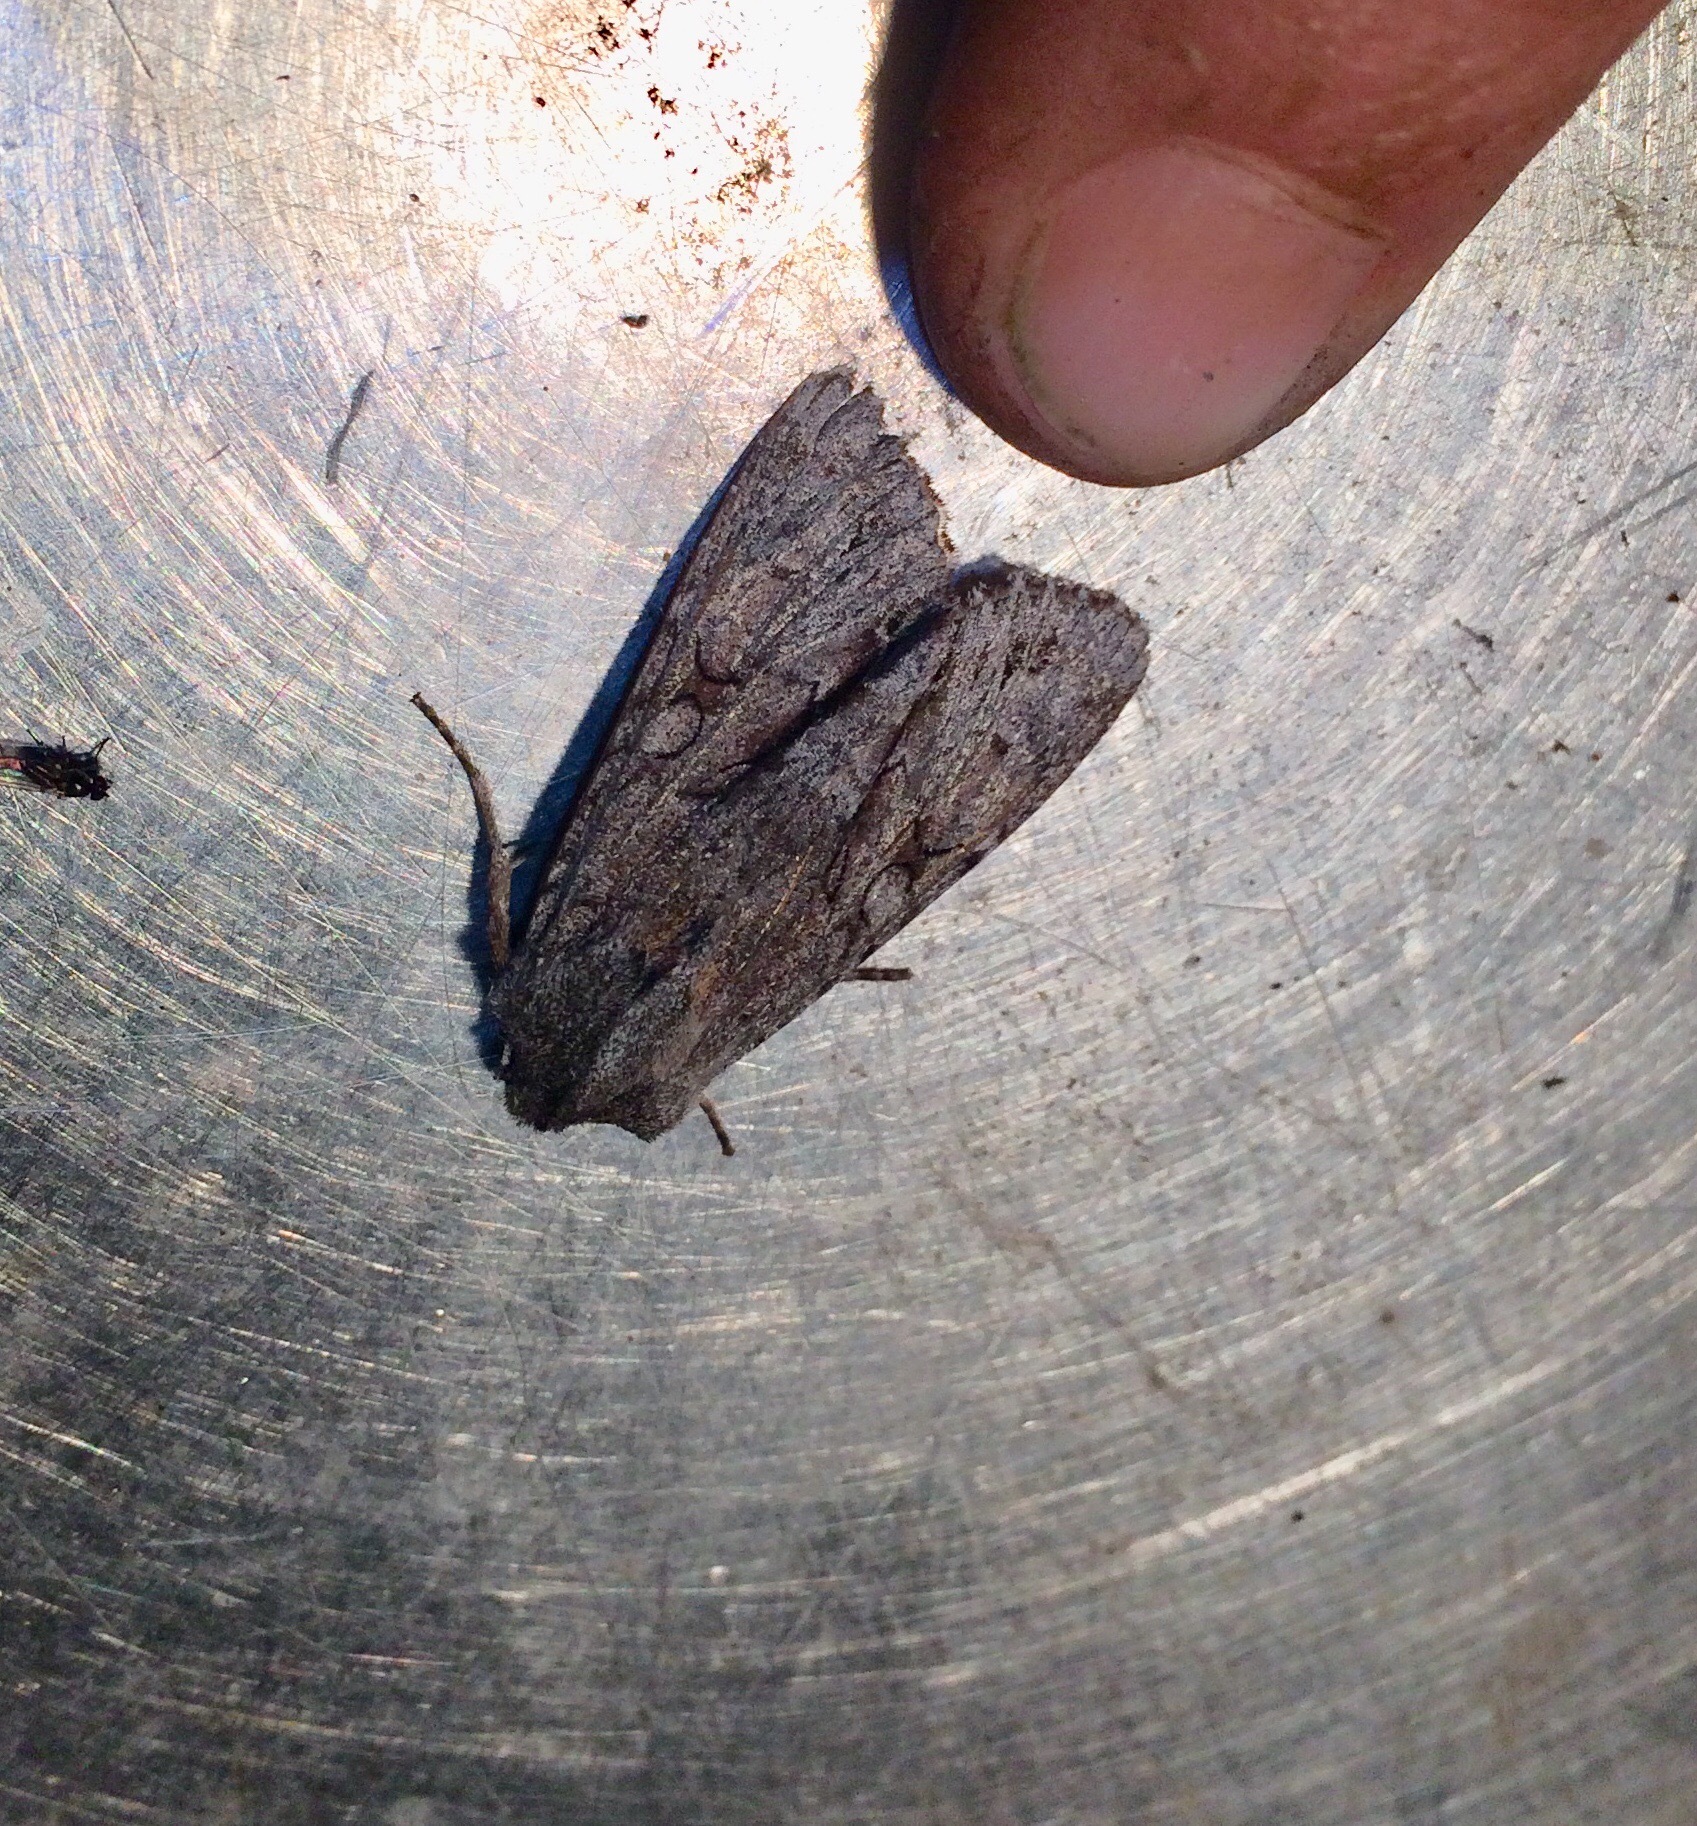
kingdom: Animalia
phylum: Arthropoda
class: Insecta
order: Lepidoptera
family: Noctuidae
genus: Ichneutica
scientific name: Ichneutica
